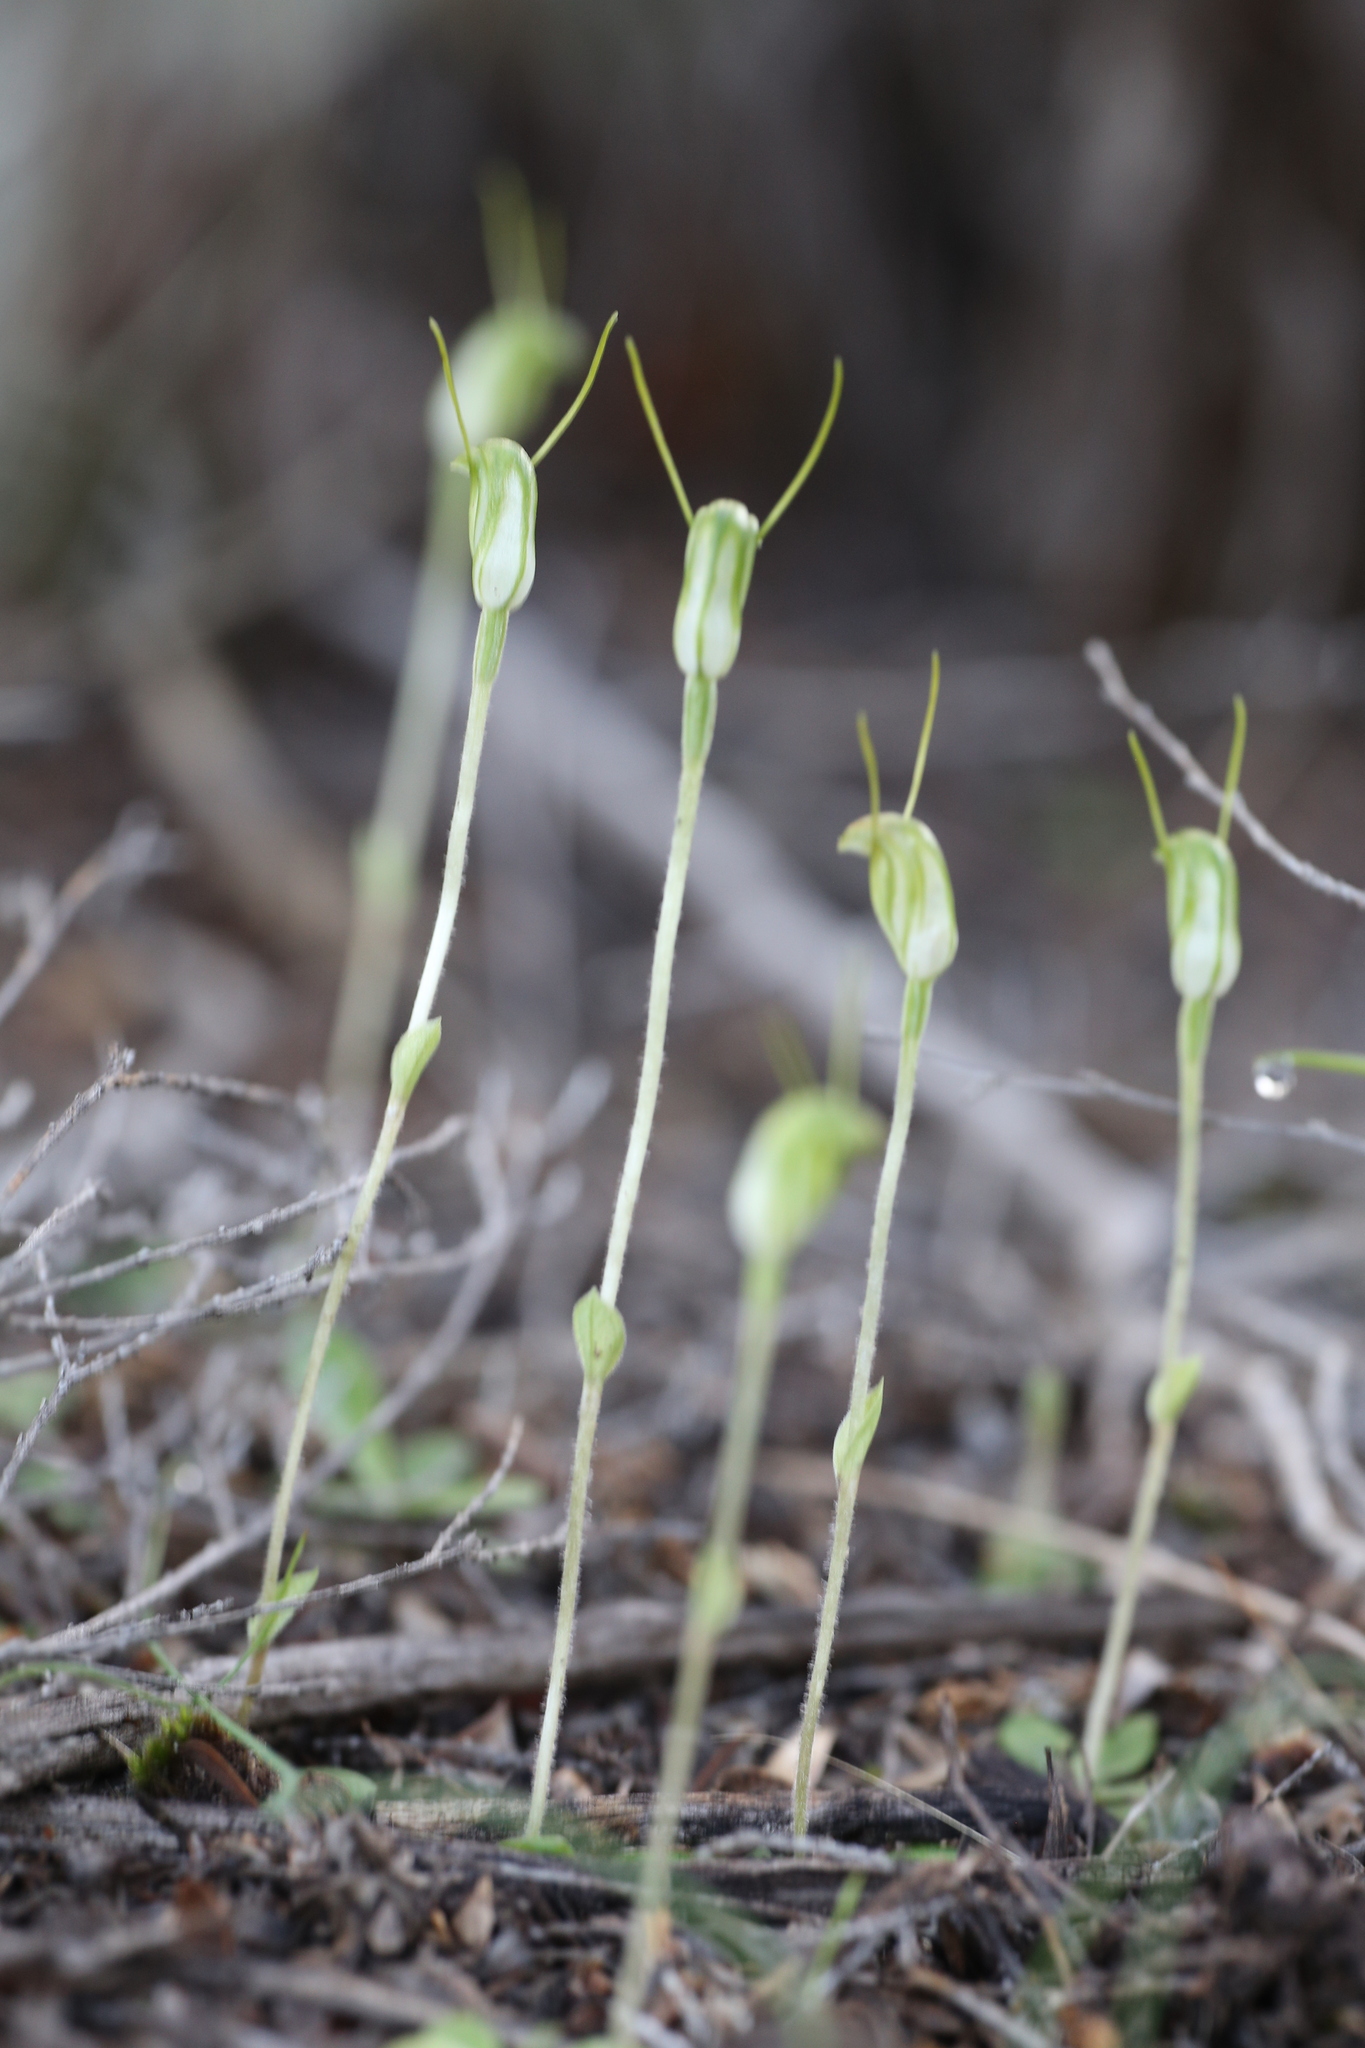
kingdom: Plantae
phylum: Tracheophyta
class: Liliopsida
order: Asparagales
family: Orchidaceae
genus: Pterostylis
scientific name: Pterostylis setulosa
